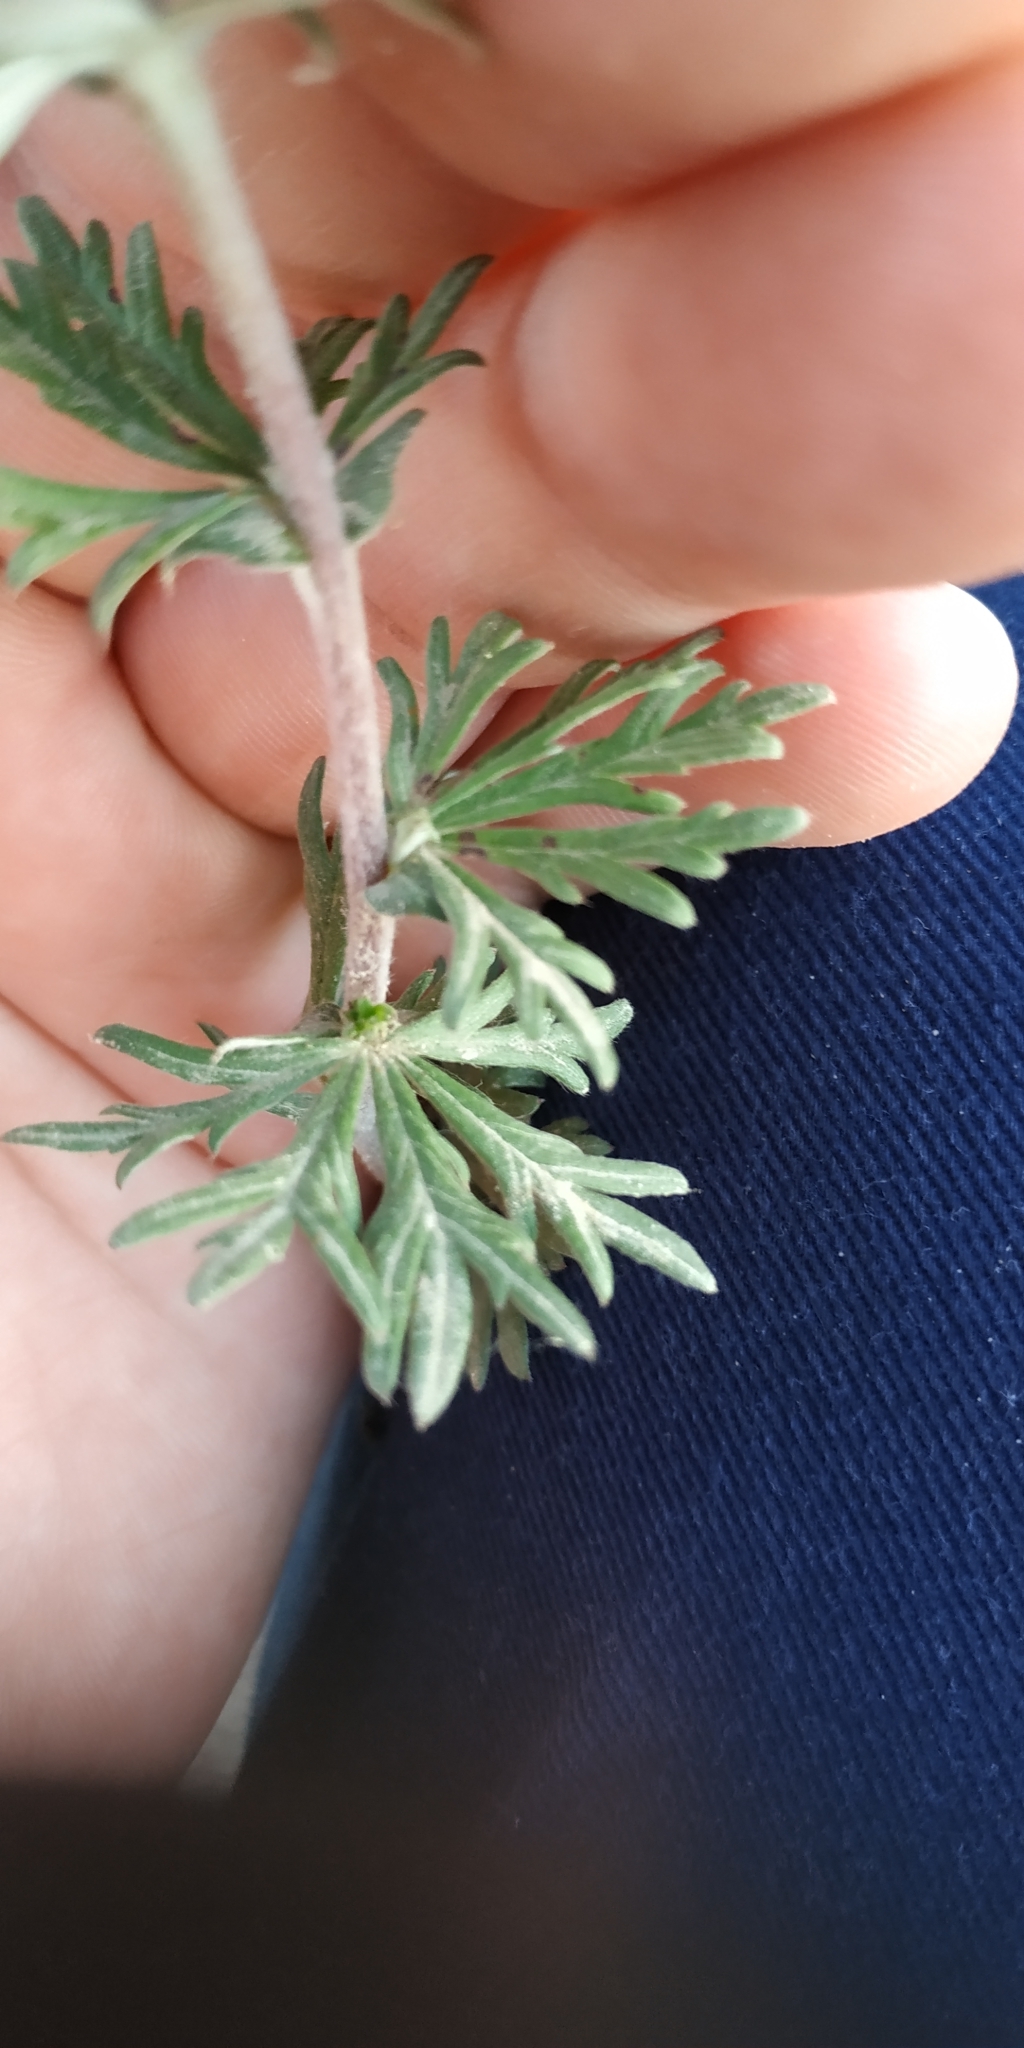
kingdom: Plantae
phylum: Tracheophyta
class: Magnoliopsida
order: Rosales
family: Rosaceae
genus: Potentilla
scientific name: Potentilla argentea
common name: Hoary cinquefoil
